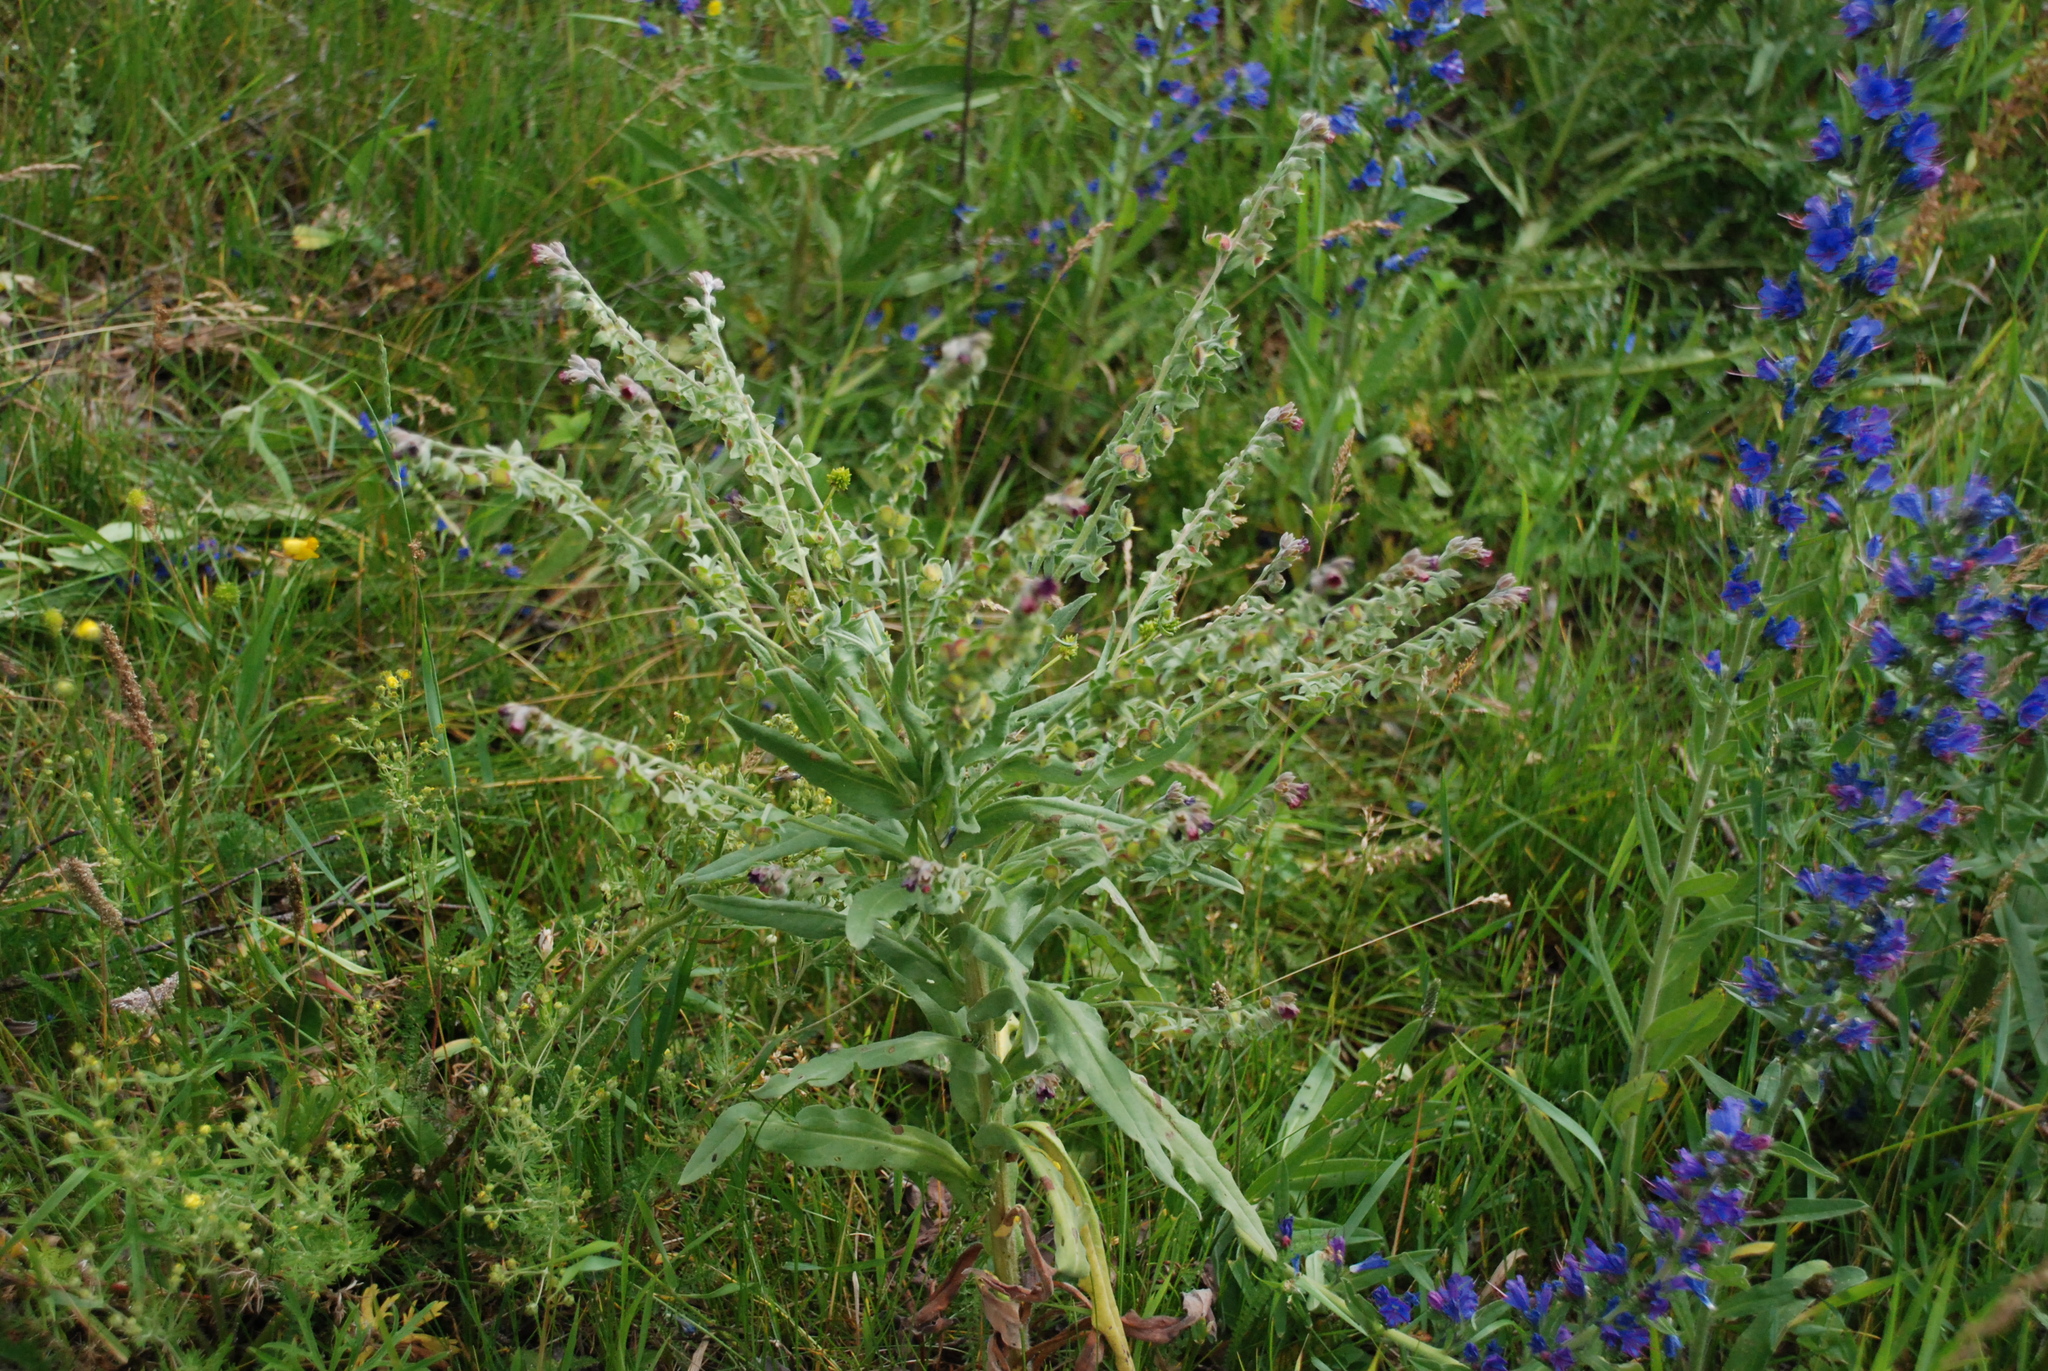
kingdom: Plantae
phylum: Tracheophyta
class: Magnoliopsida
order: Boraginales
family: Boraginaceae
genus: Cynoglossum
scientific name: Cynoglossum officinale
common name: Hound's-tongue
